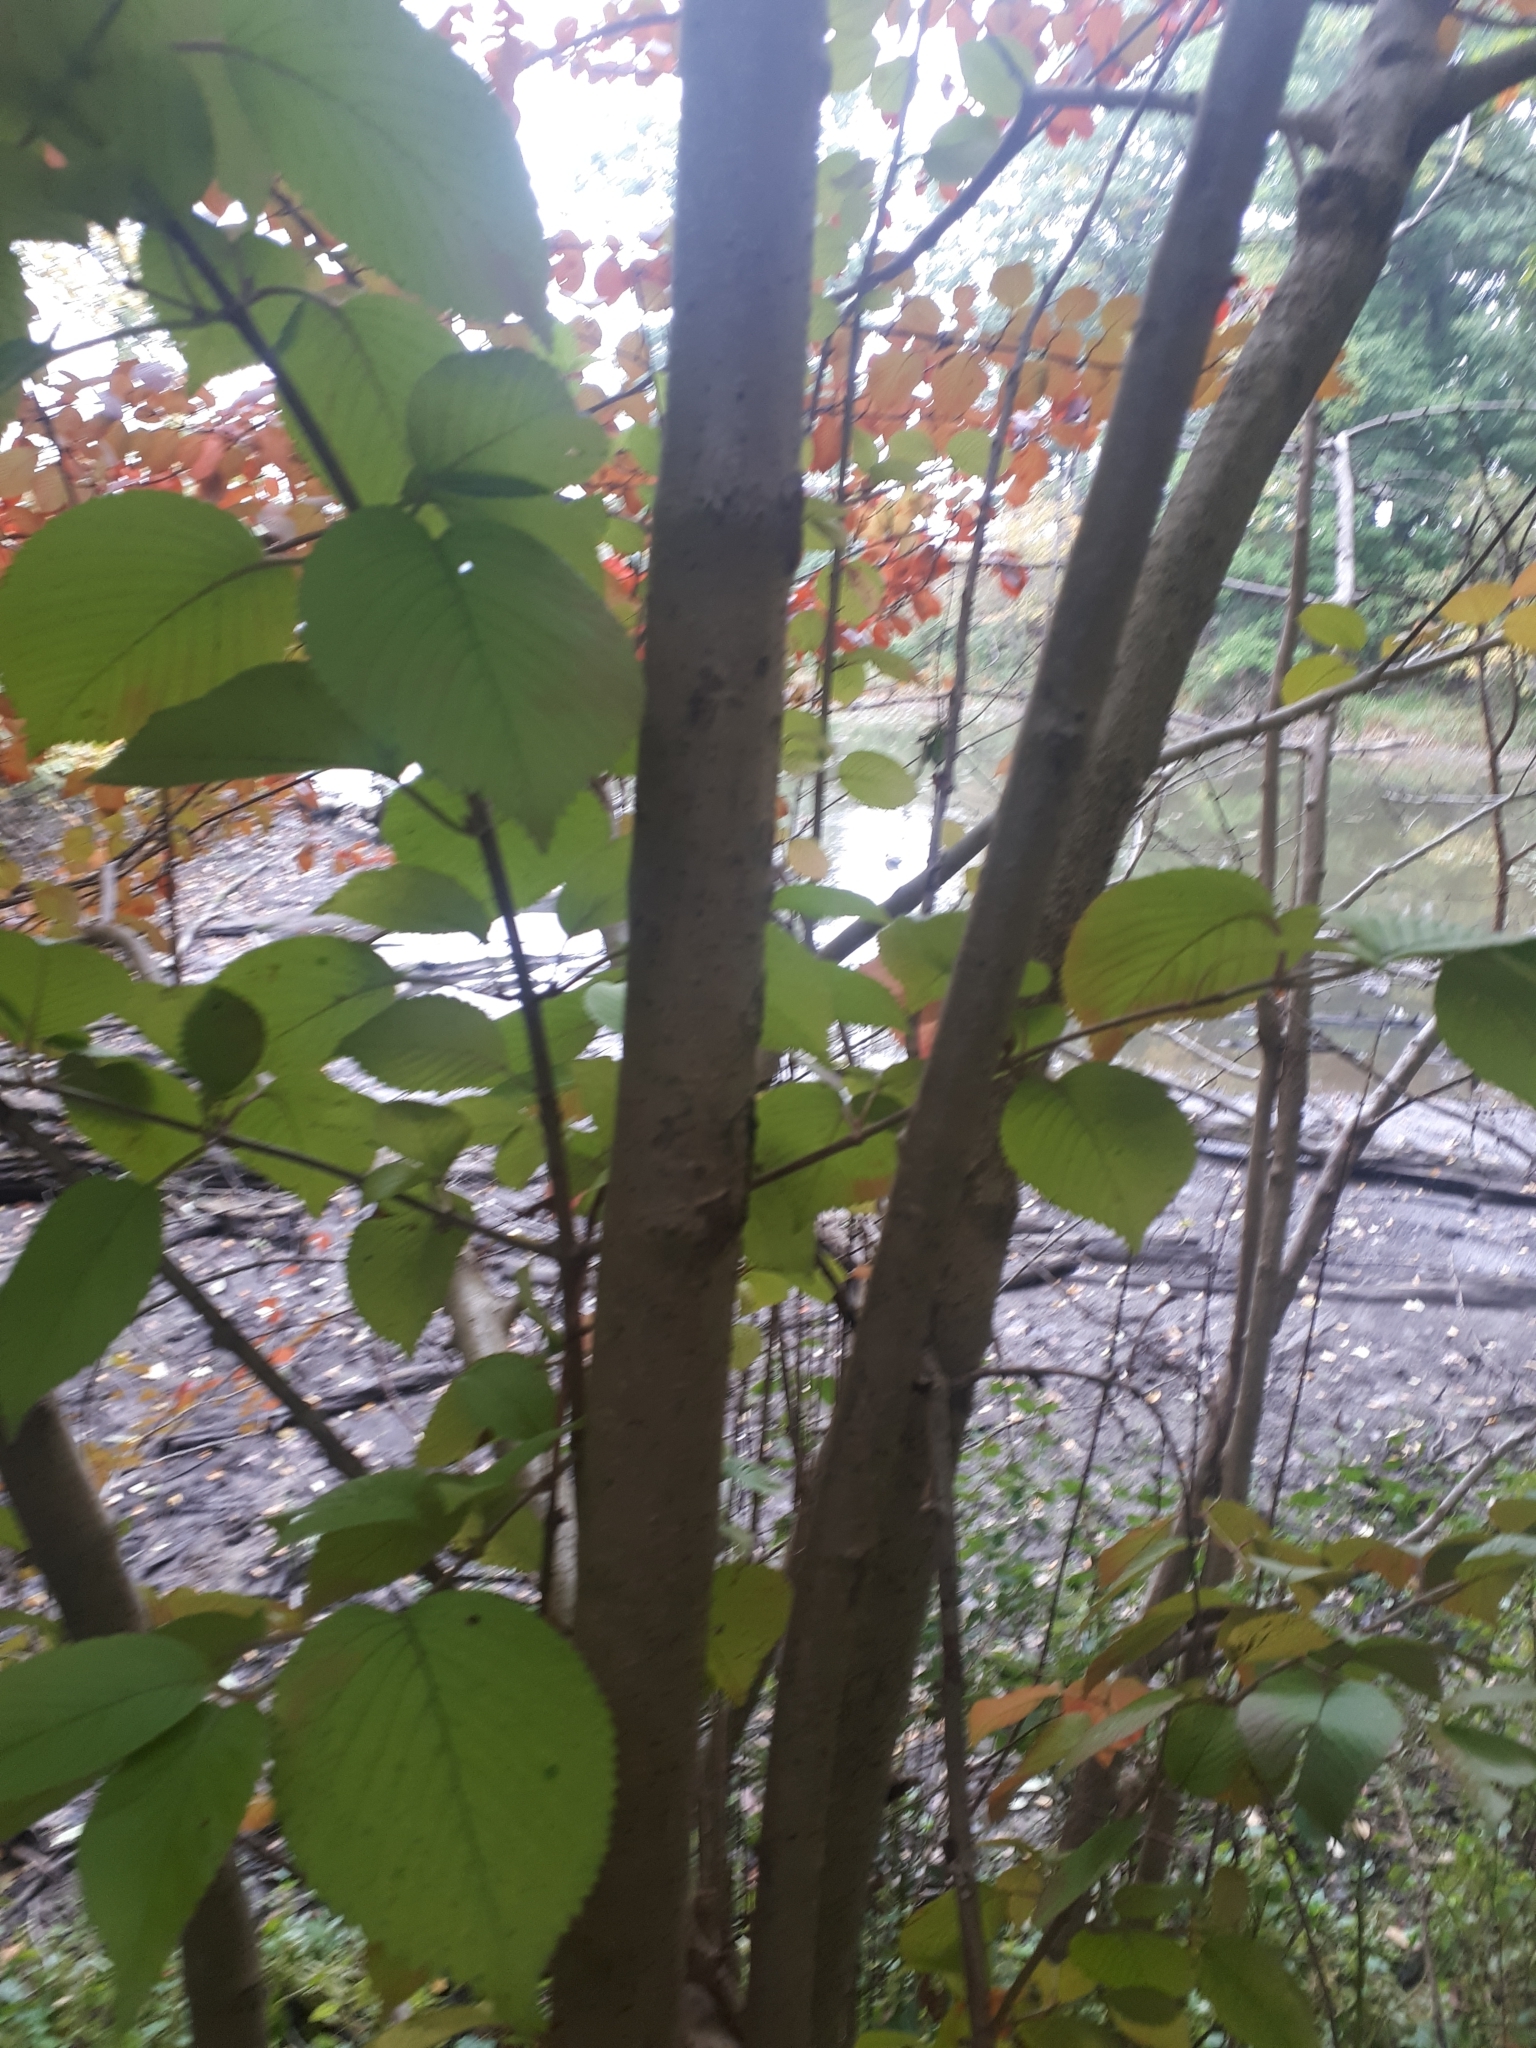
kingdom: Plantae
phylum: Tracheophyta
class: Magnoliopsida
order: Dipsacales
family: Viburnaceae
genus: Viburnum
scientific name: Viburnum plicatum
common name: Japanese snowball
